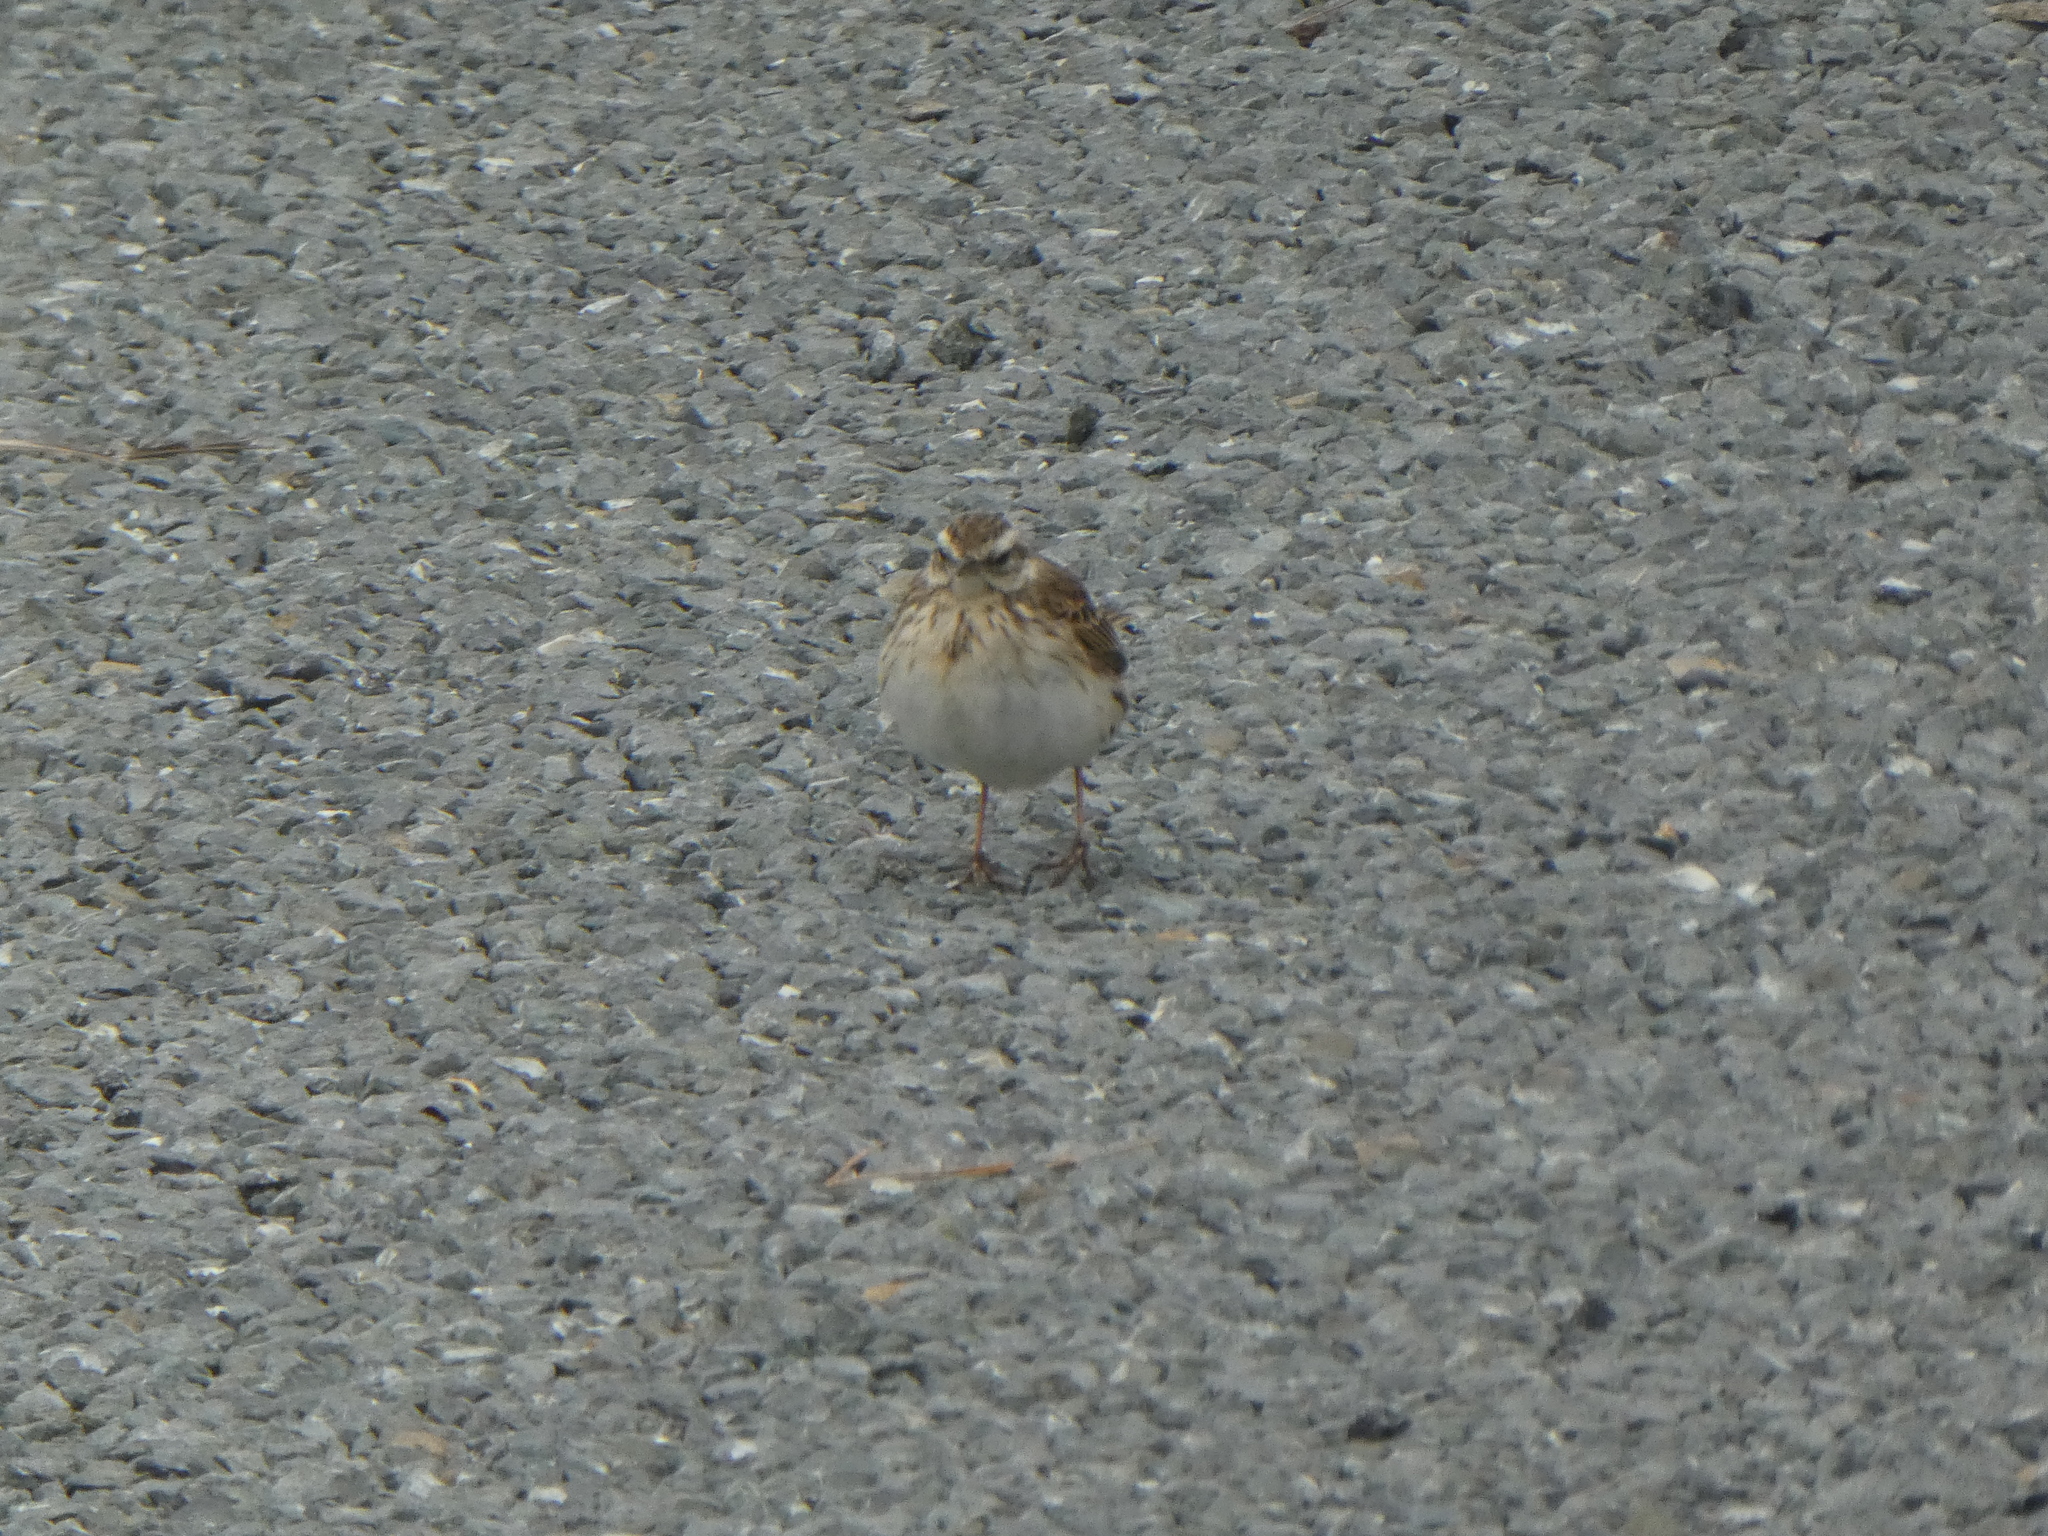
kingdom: Animalia
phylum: Chordata
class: Aves
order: Passeriformes
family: Motacillidae
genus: Anthus
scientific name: Anthus novaeseelandiae
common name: New zealand pipit
